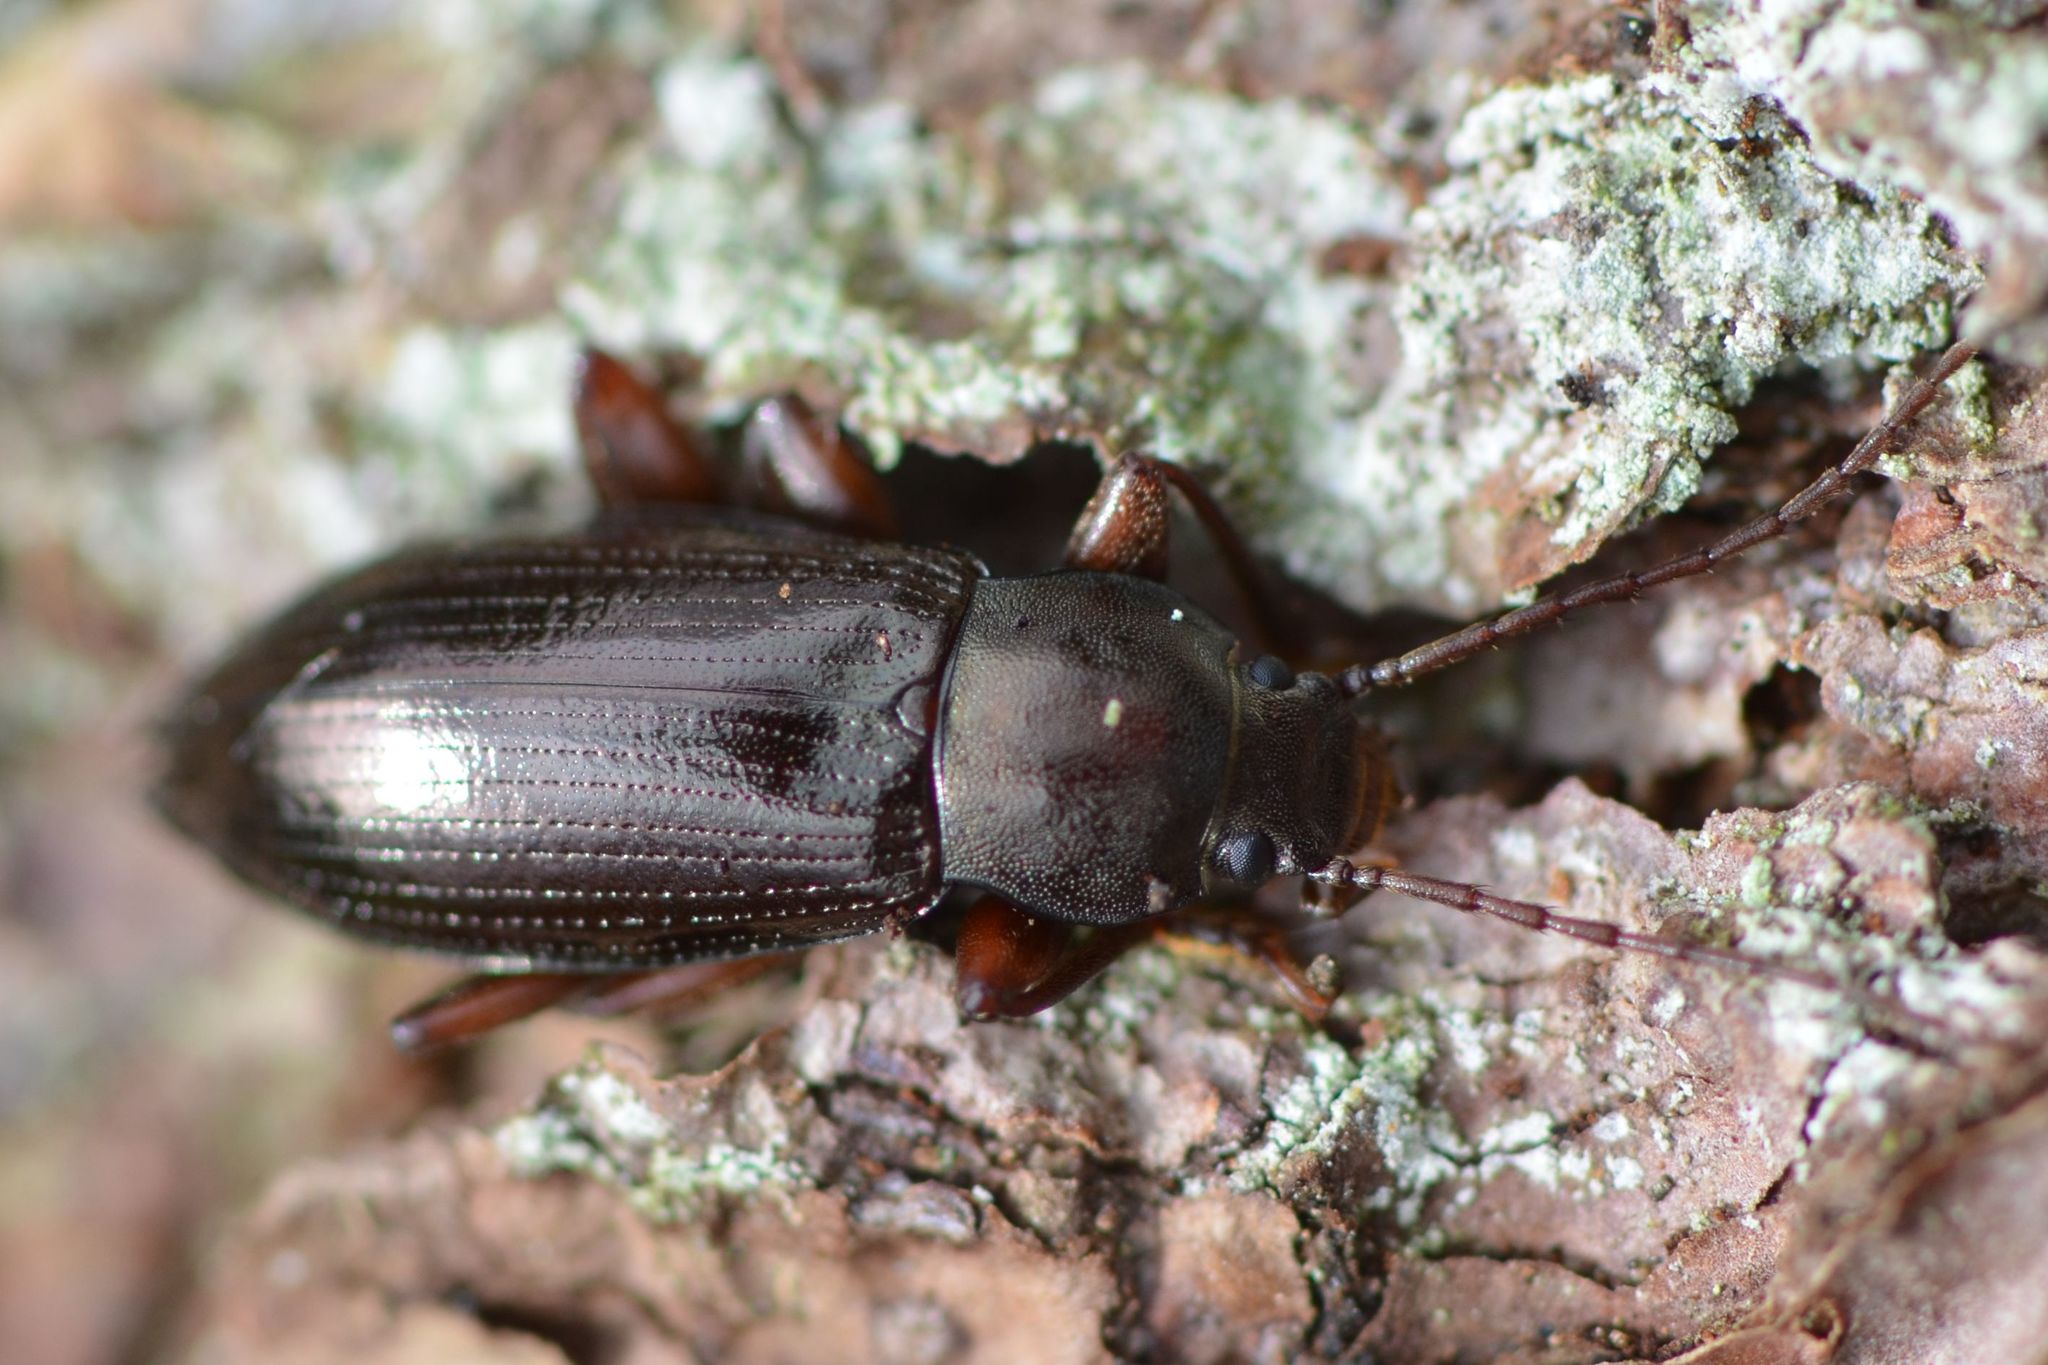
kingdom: Animalia
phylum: Arthropoda
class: Insecta
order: Coleoptera
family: Tenebrionidae
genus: Stenomax
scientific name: Stenomax aeneus
